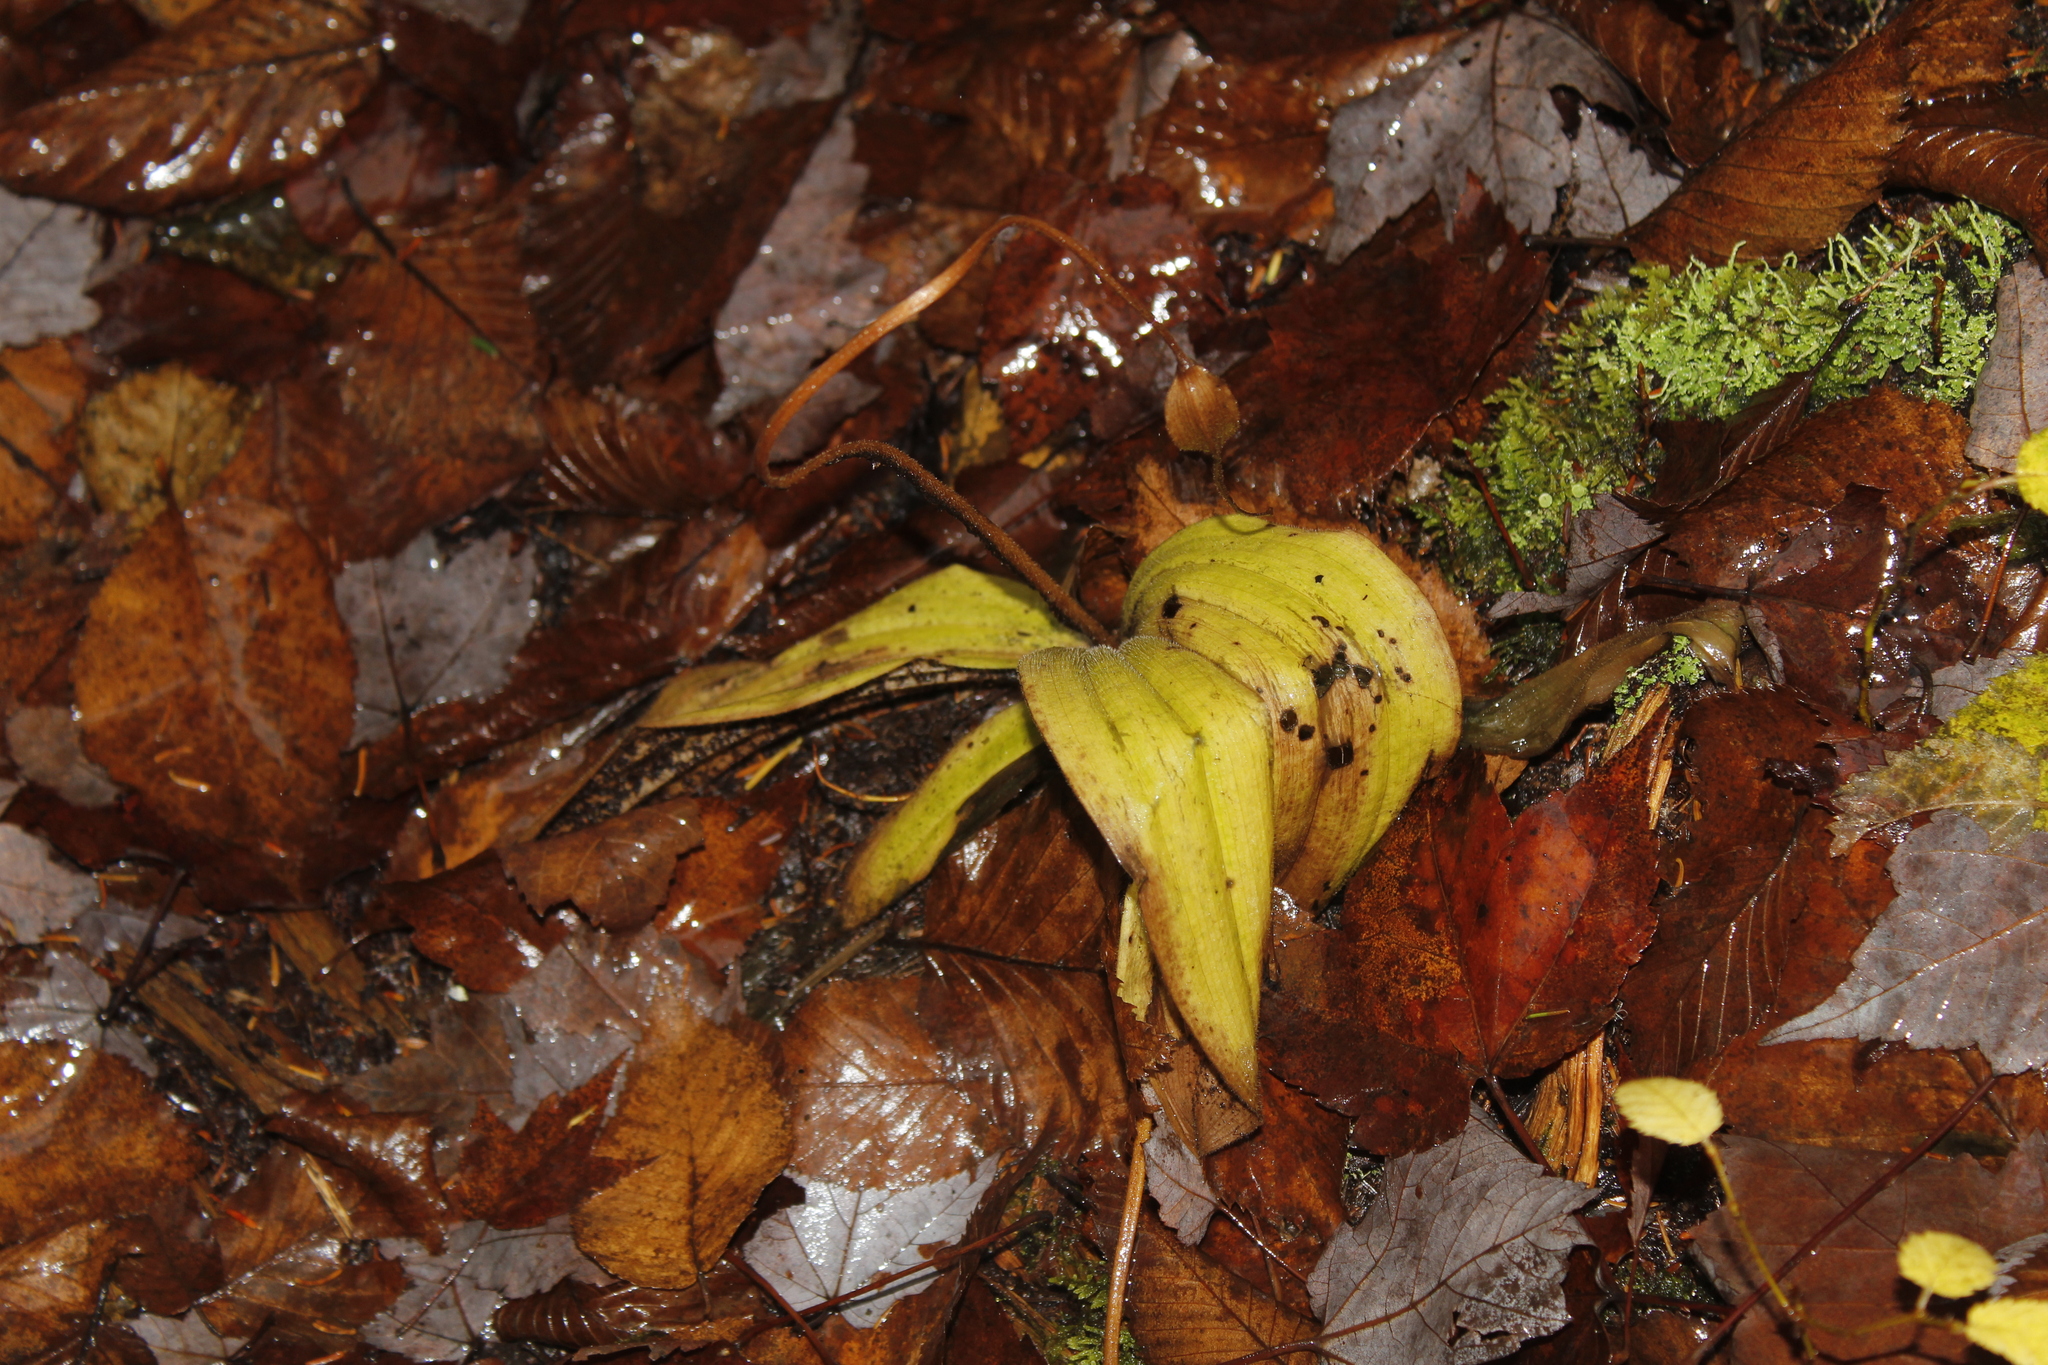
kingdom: Plantae
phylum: Tracheophyta
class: Liliopsida
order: Asparagales
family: Orchidaceae
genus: Cypripedium
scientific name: Cypripedium acaule
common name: Pink lady's-slipper
